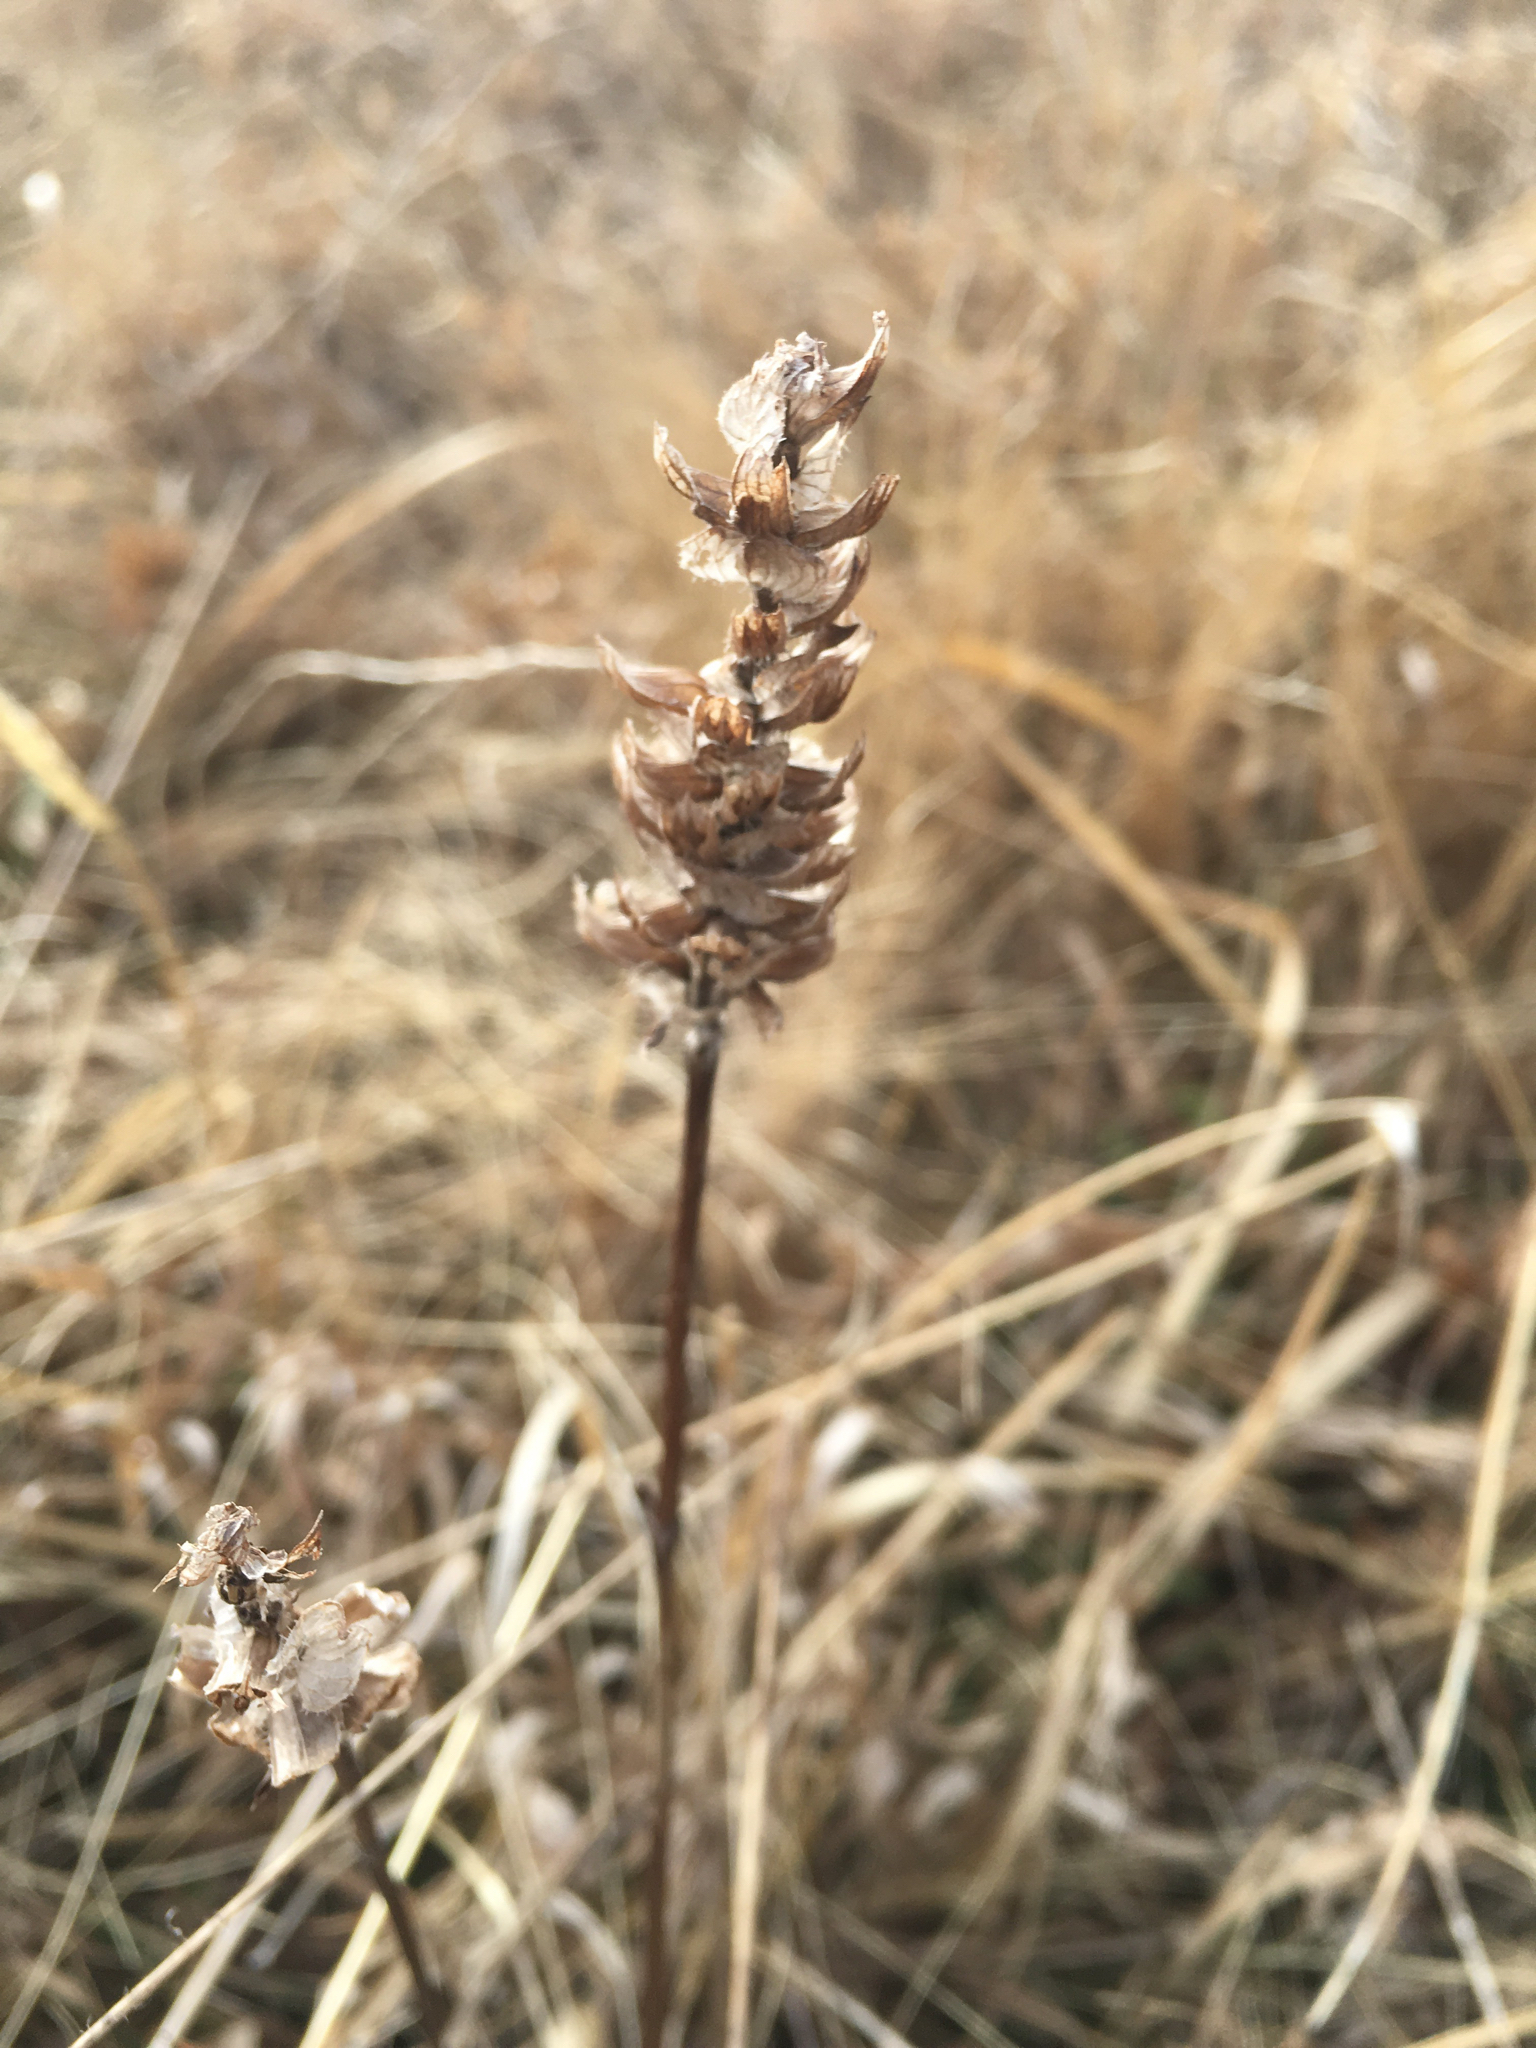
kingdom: Plantae
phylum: Tracheophyta
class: Magnoliopsida
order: Lamiales
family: Lamiaceae
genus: Prunella
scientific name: Prunella vulgaris
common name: Heal-all
